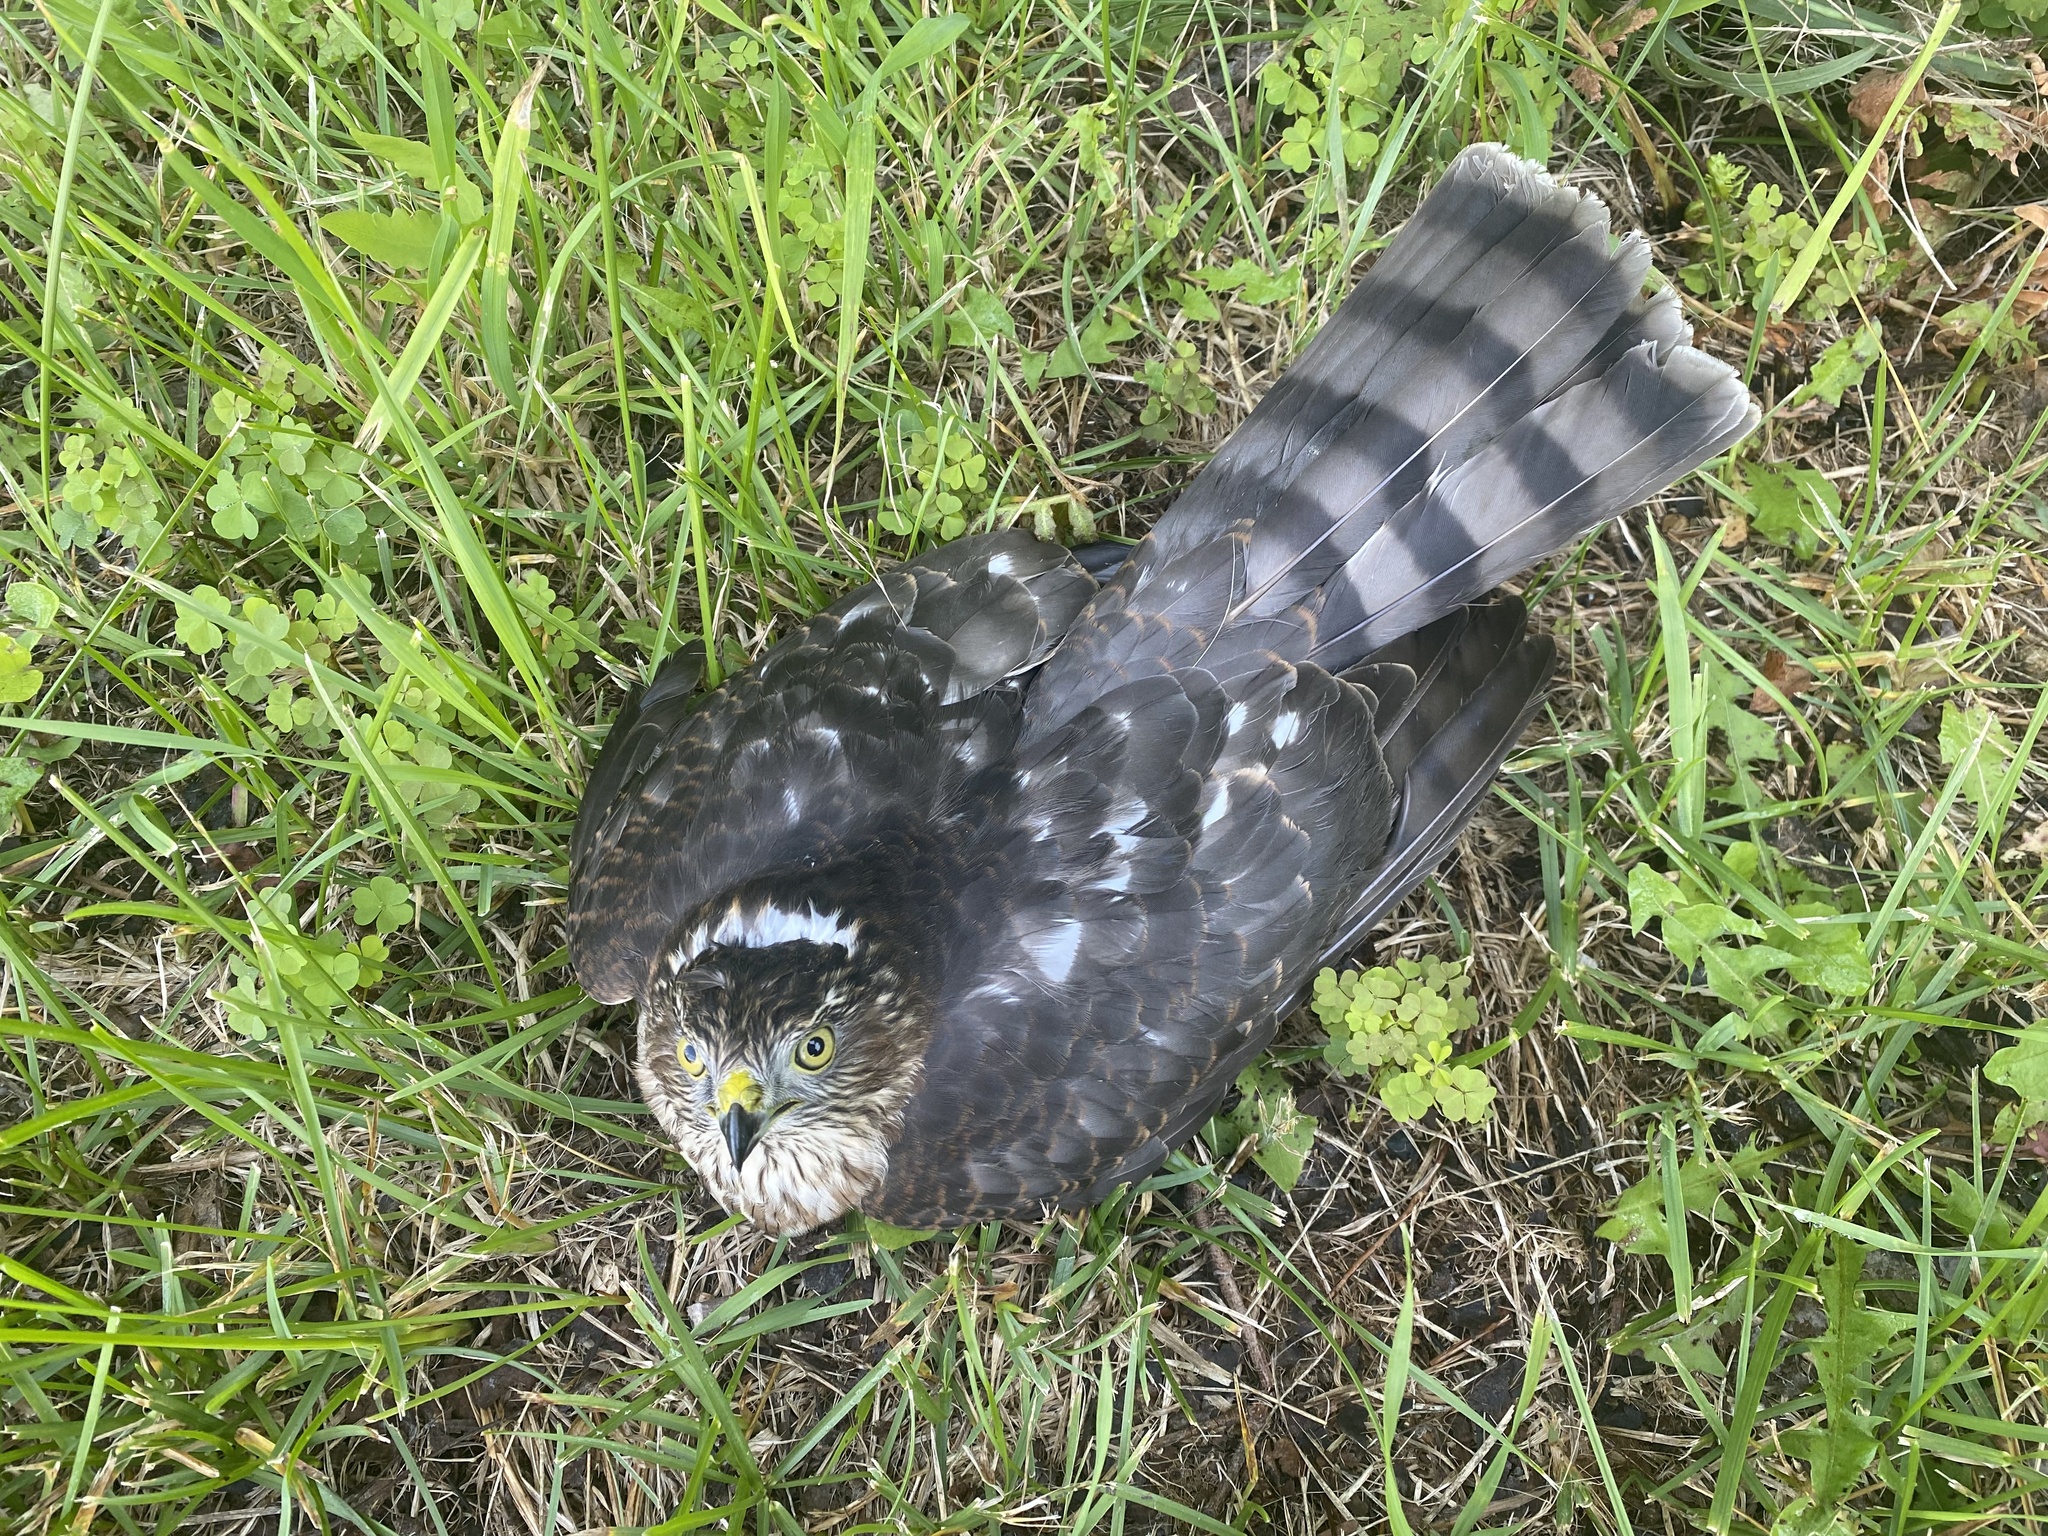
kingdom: Animalia
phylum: Chordata
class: Aves
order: Accipitriformes
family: Accipitridae
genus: Accipiter
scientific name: Accipiter striatus
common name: Sharp-shinned hawk
